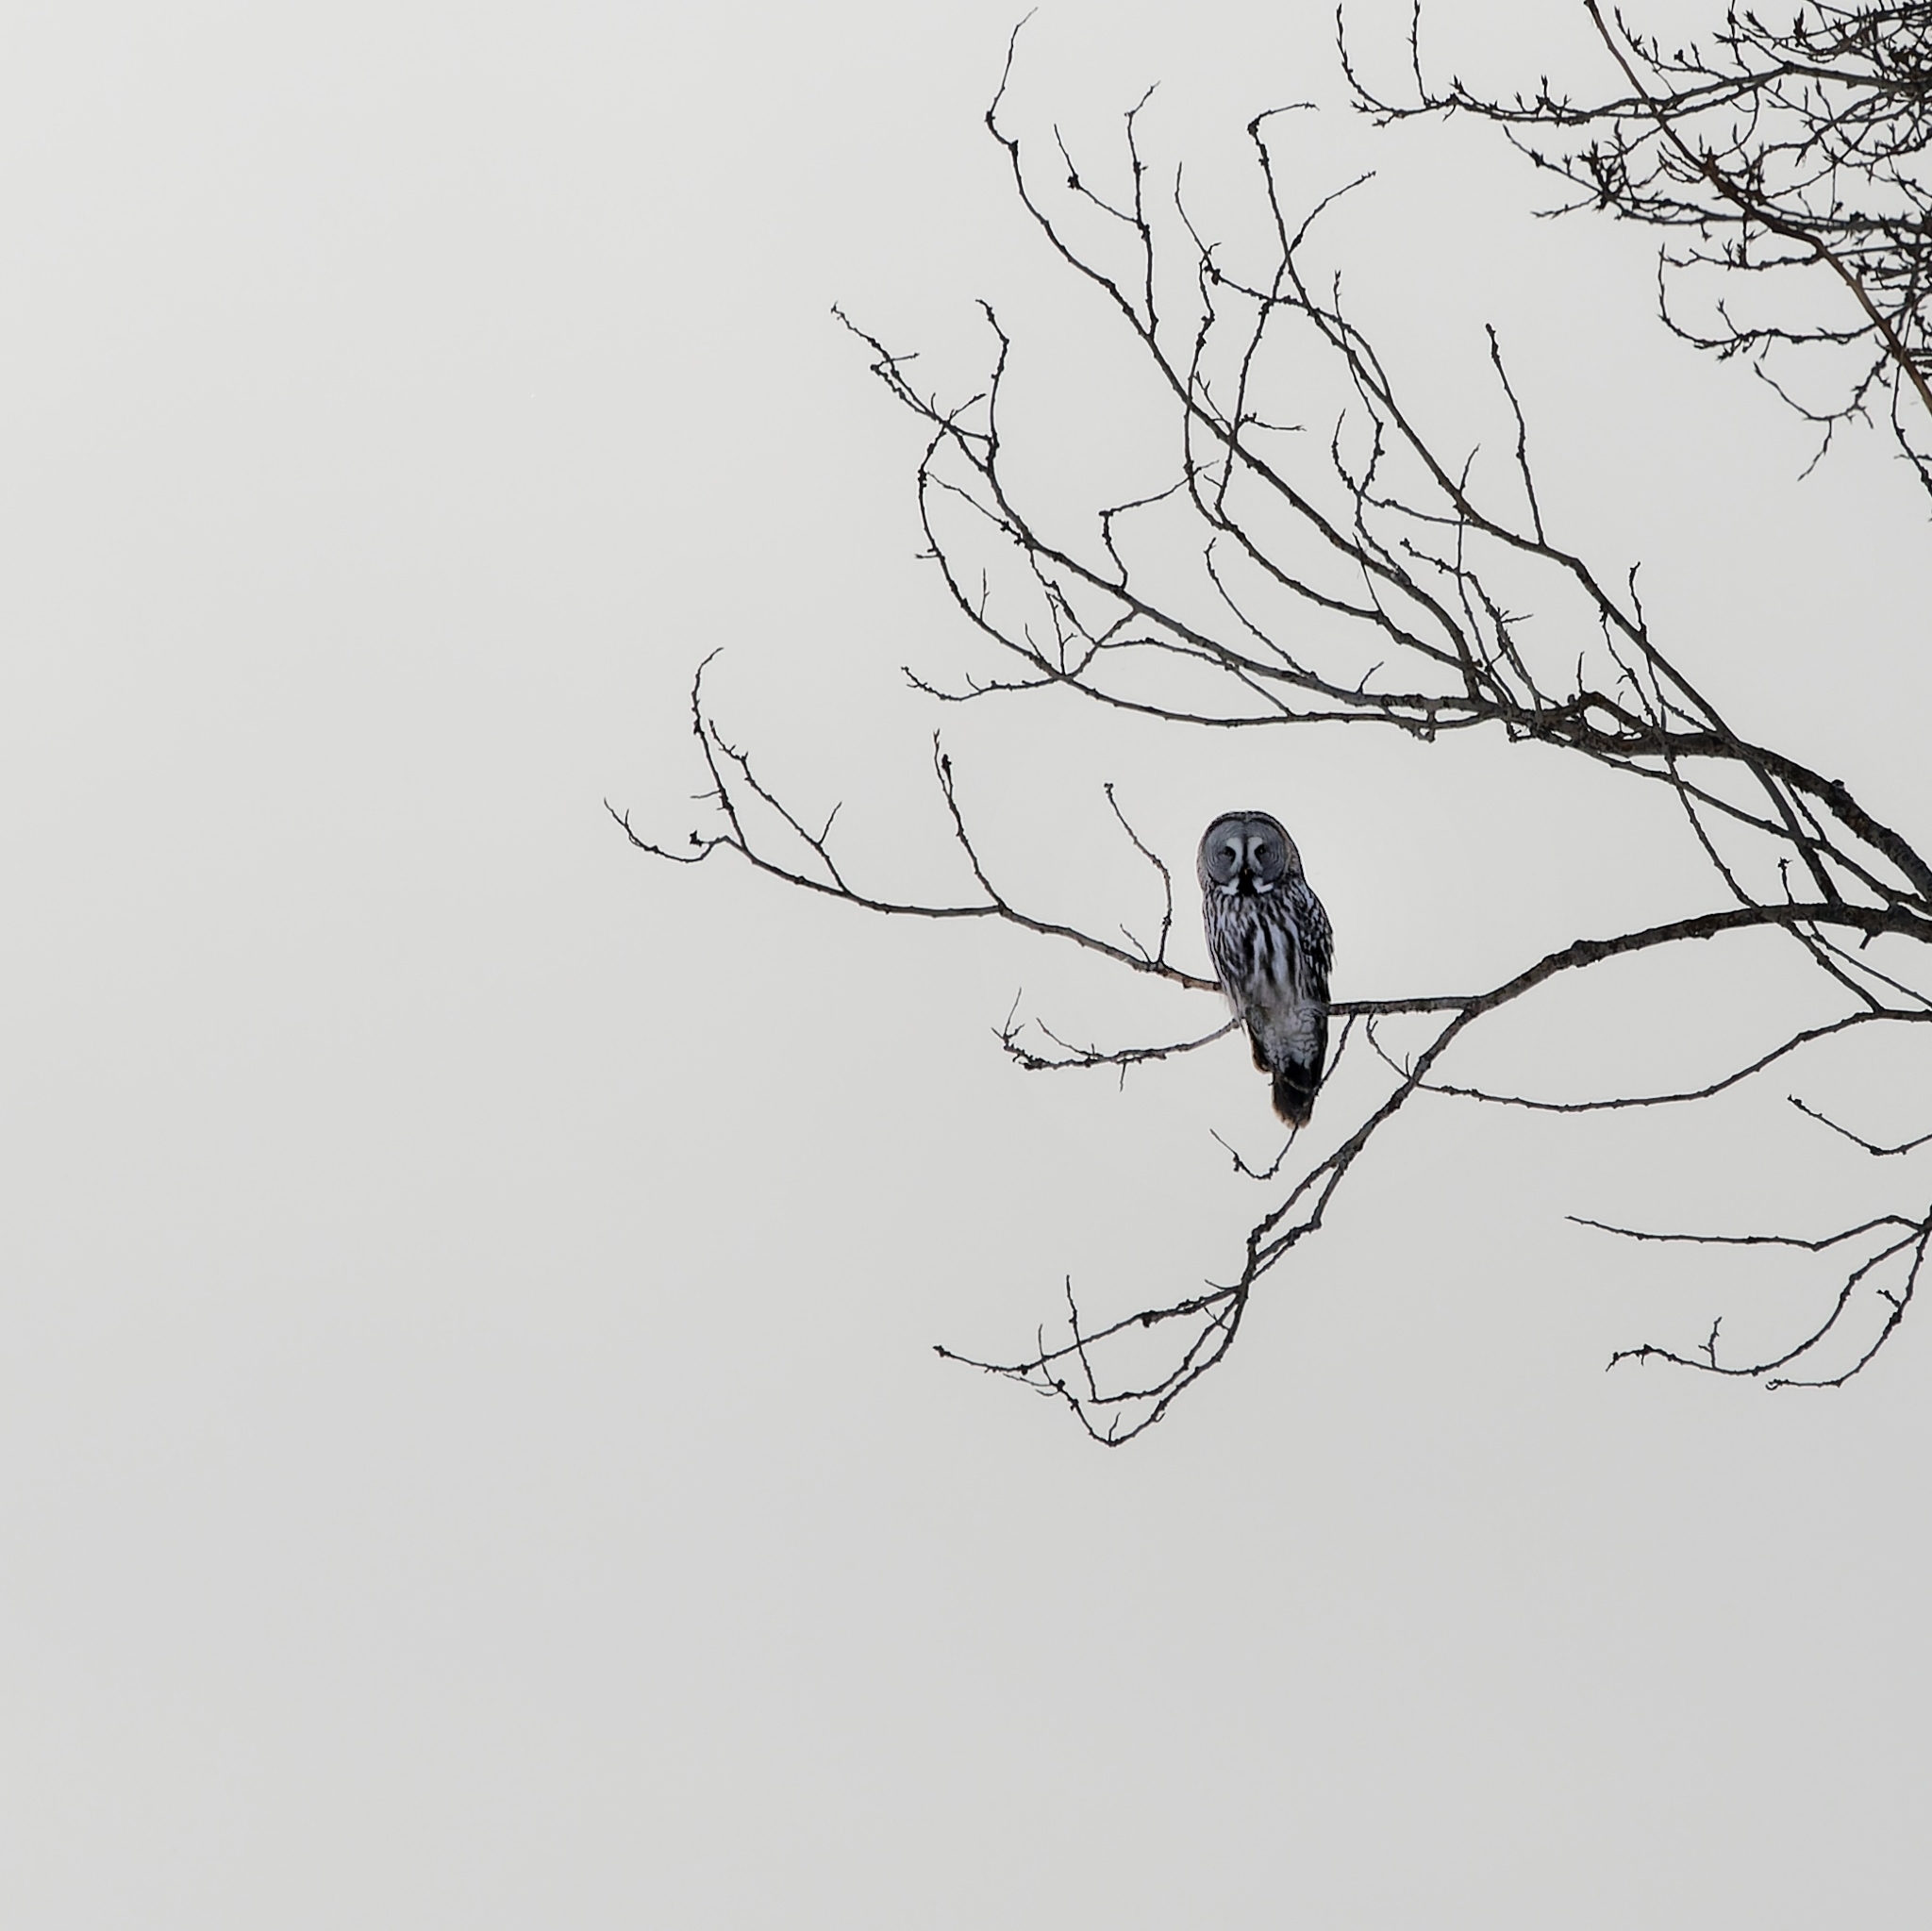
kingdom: Animalia
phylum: Chordata
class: Aves
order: Strigiformes
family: Strigidae
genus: Strix
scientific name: Strix nebulosa
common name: Great grey owl
